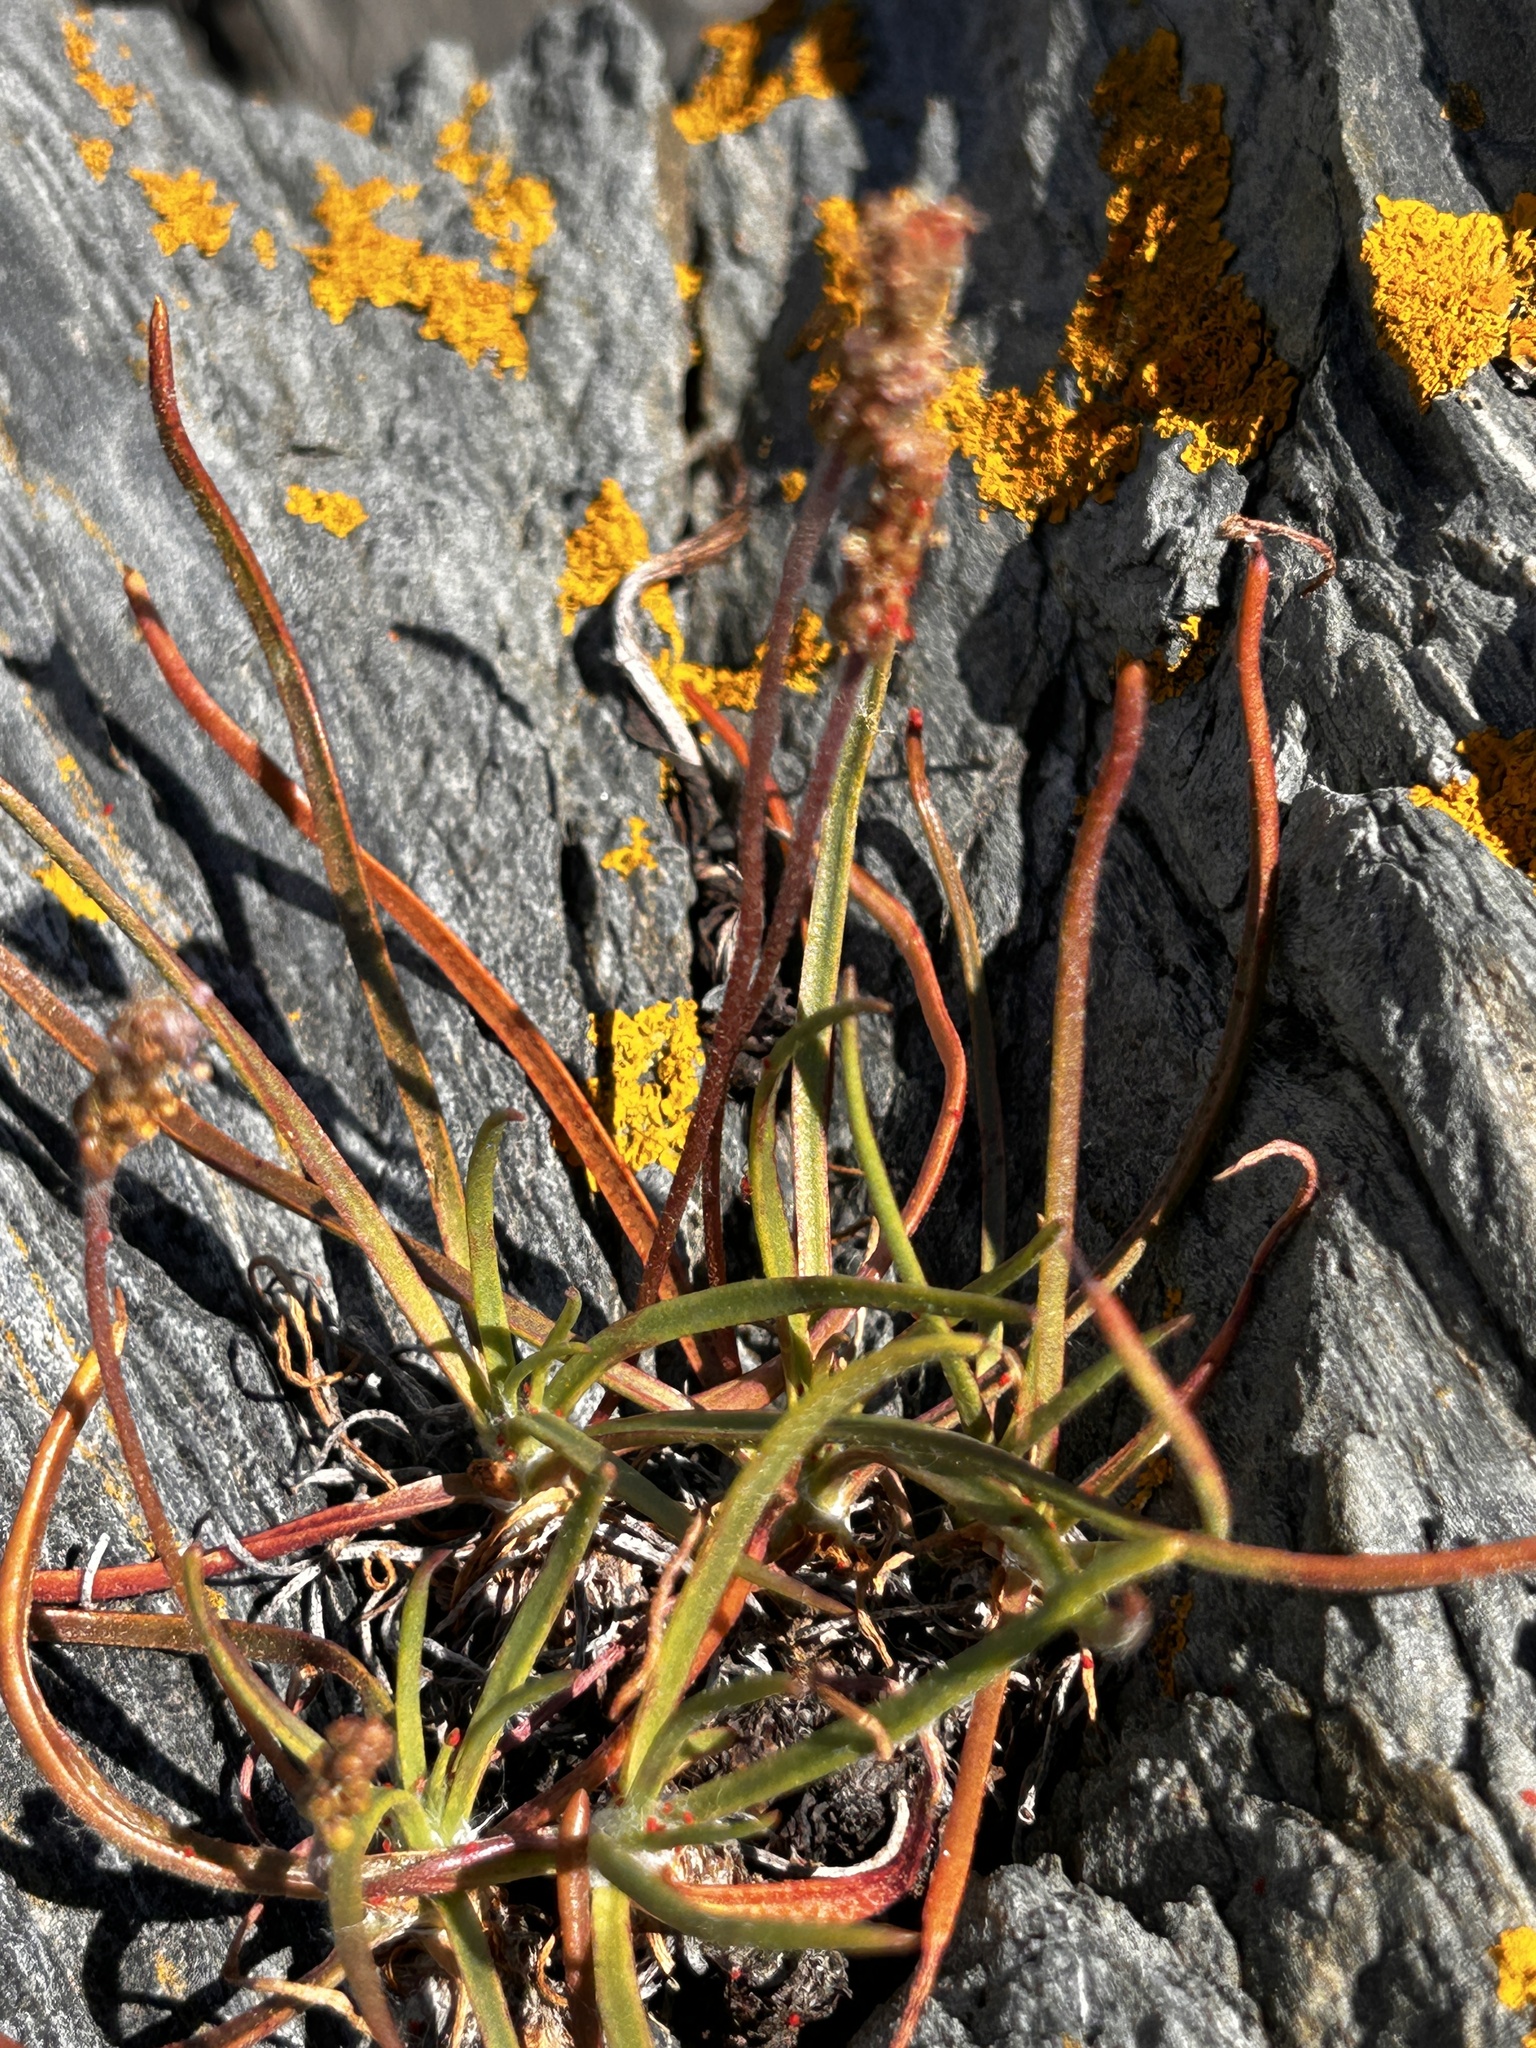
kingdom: Plantae
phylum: Tracheophyta
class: Magnoliopsida
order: Lamiales
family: Plantaginaceae
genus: Plantago
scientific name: Plantago maritima
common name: Sea plantain
